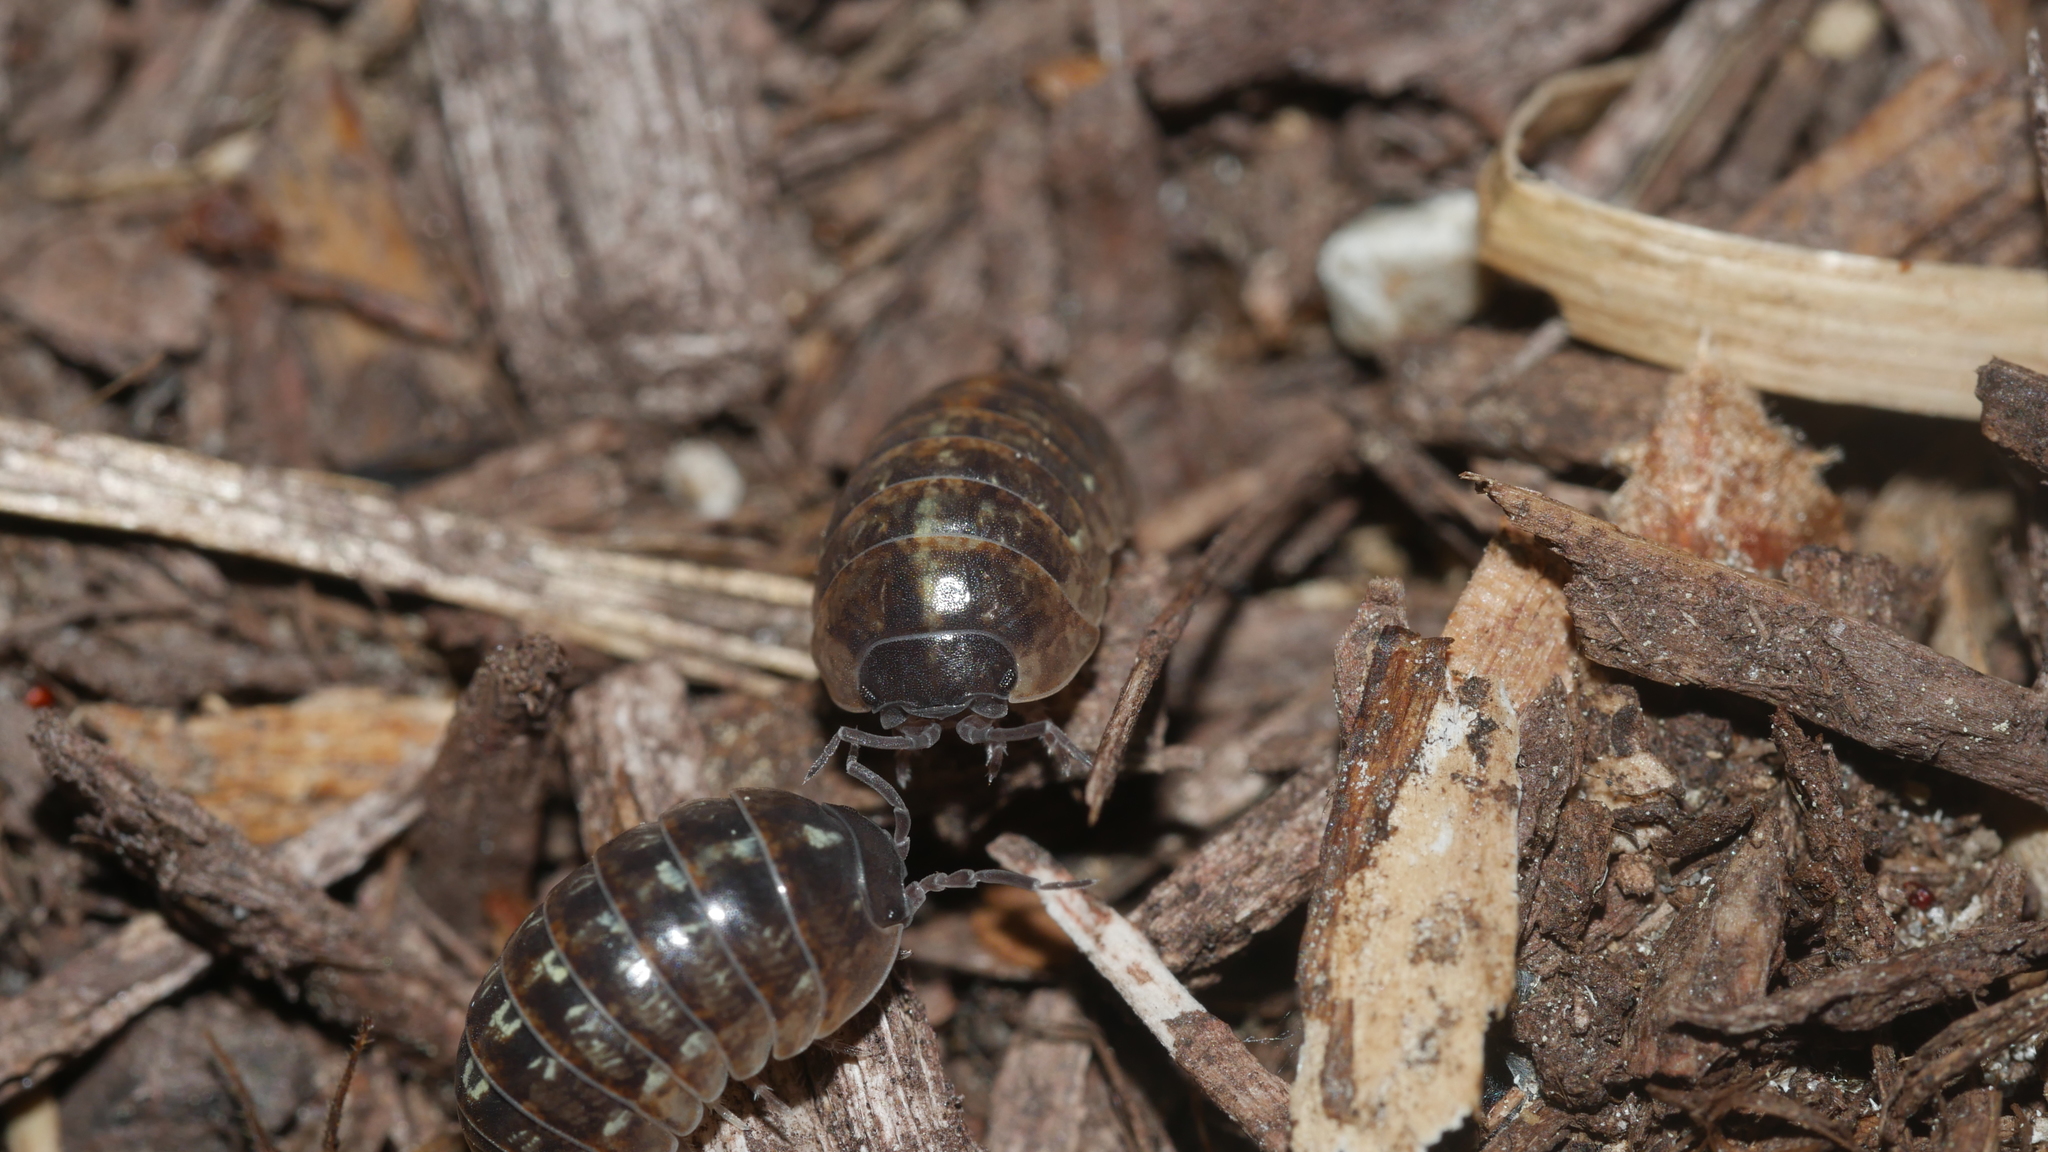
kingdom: Animalia
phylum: Arthropoda
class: Malacostraca
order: Isopoda
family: Armadillidiidae
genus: Armadillidium
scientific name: Armadillidium vulgare
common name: Common pill woodlouse
